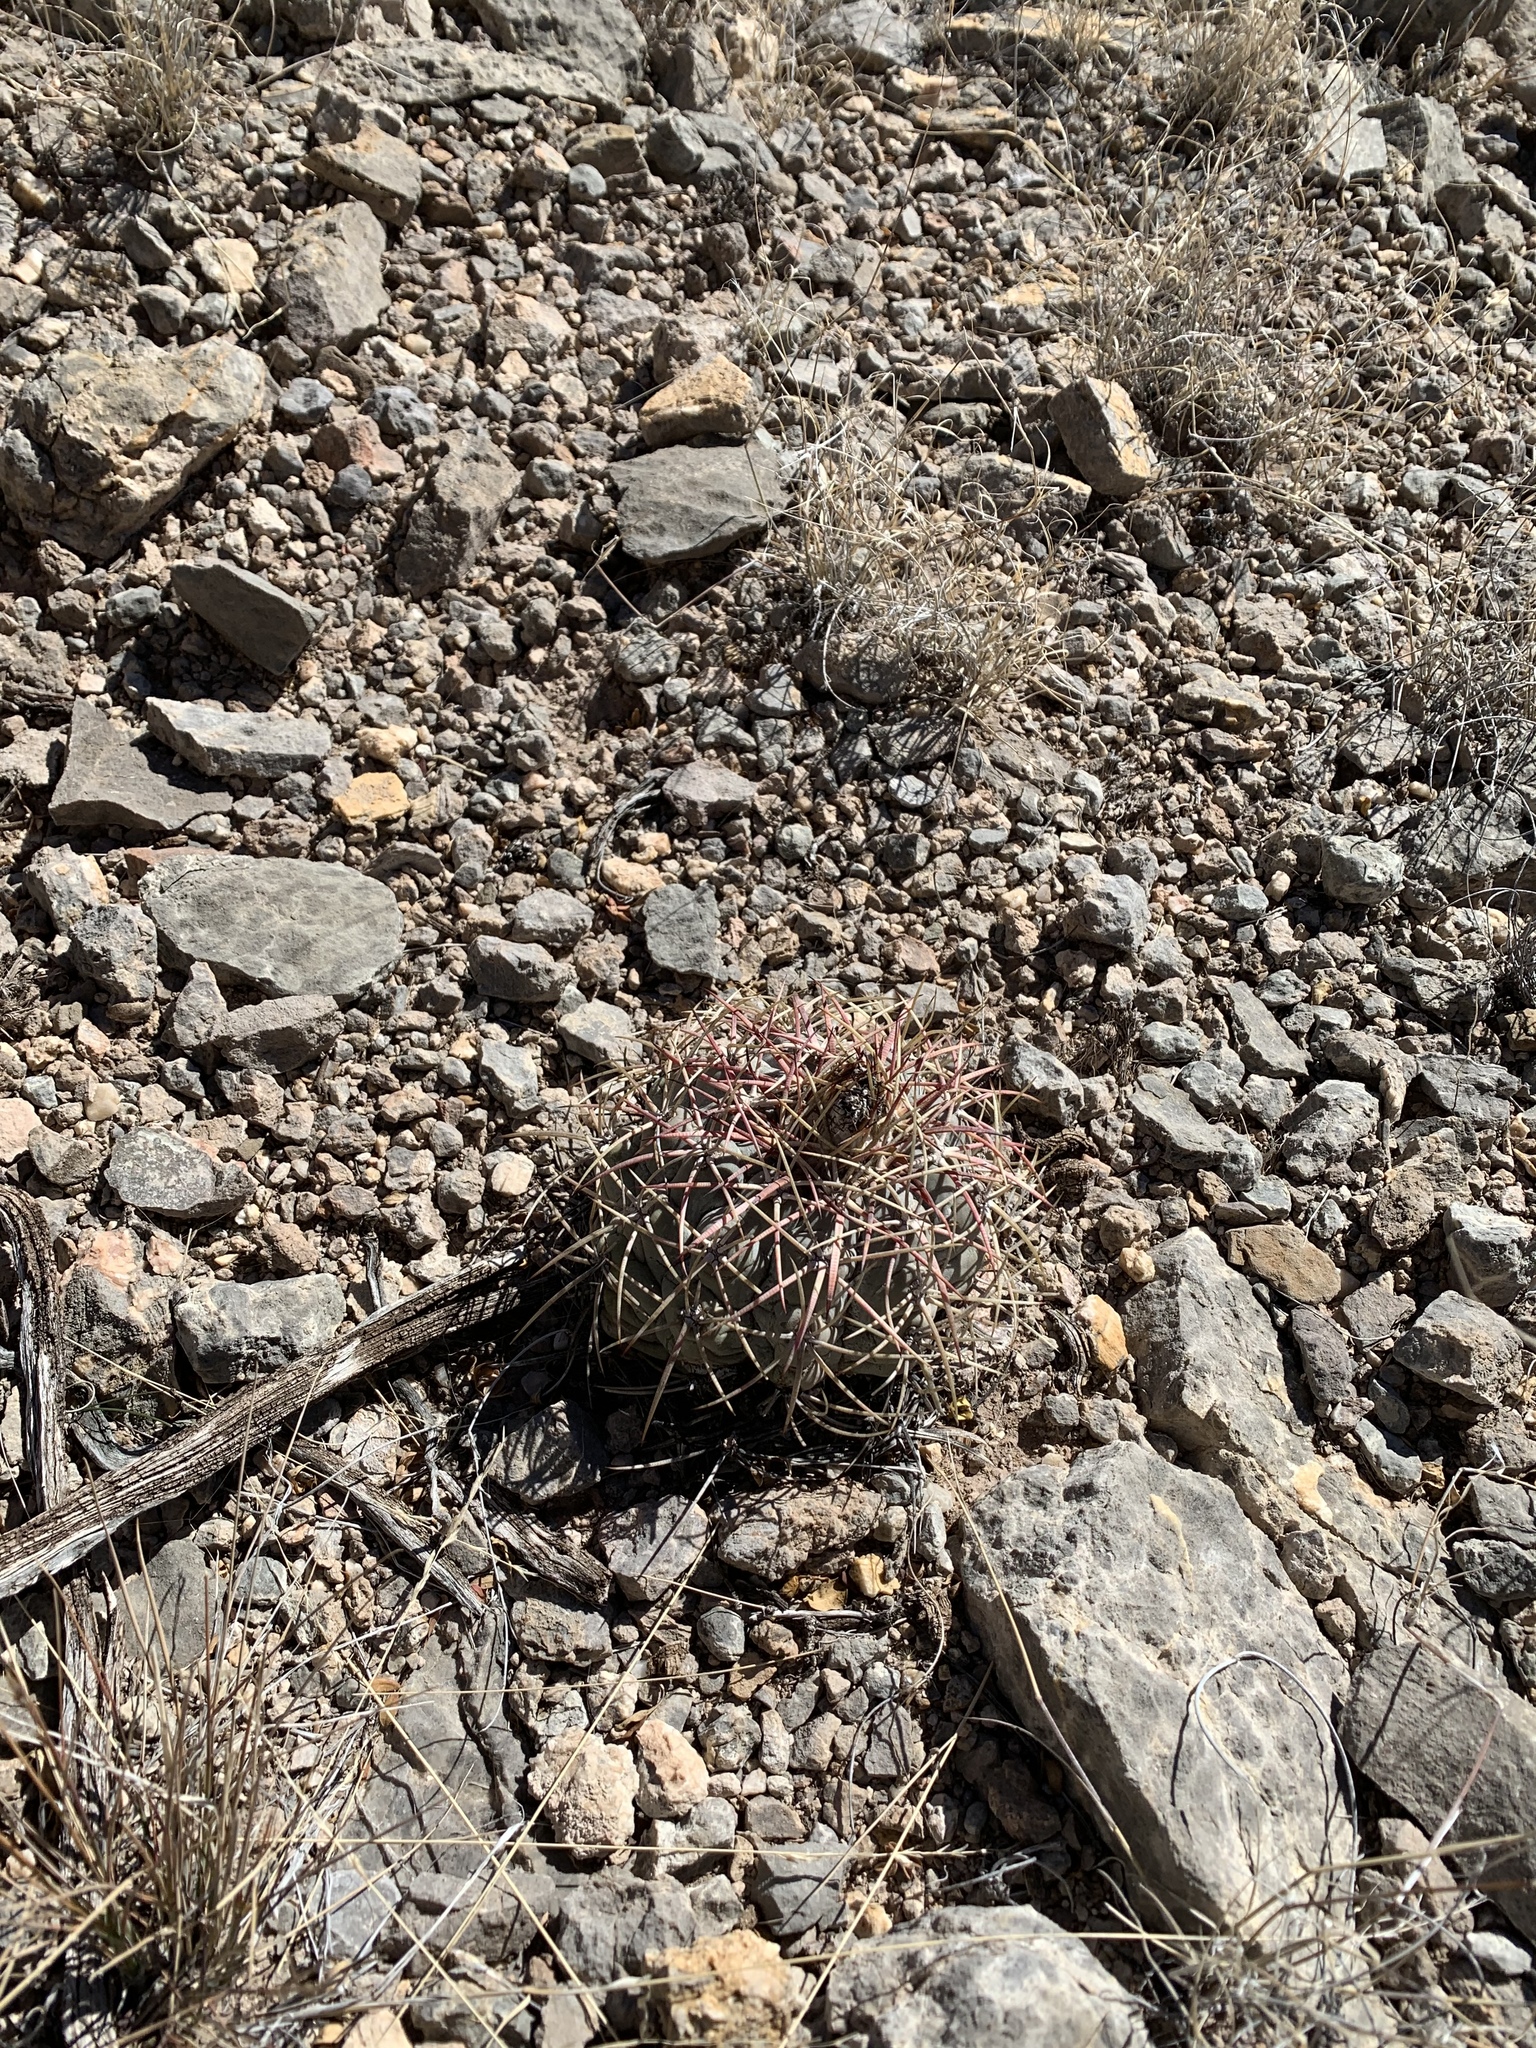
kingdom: Plantae
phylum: Tracheophyta
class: Magnoliopsida
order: Caryophyllales
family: Cactaceae
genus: Echinocactus
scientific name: Echinocactus horizonthalonius
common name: Devilshead
